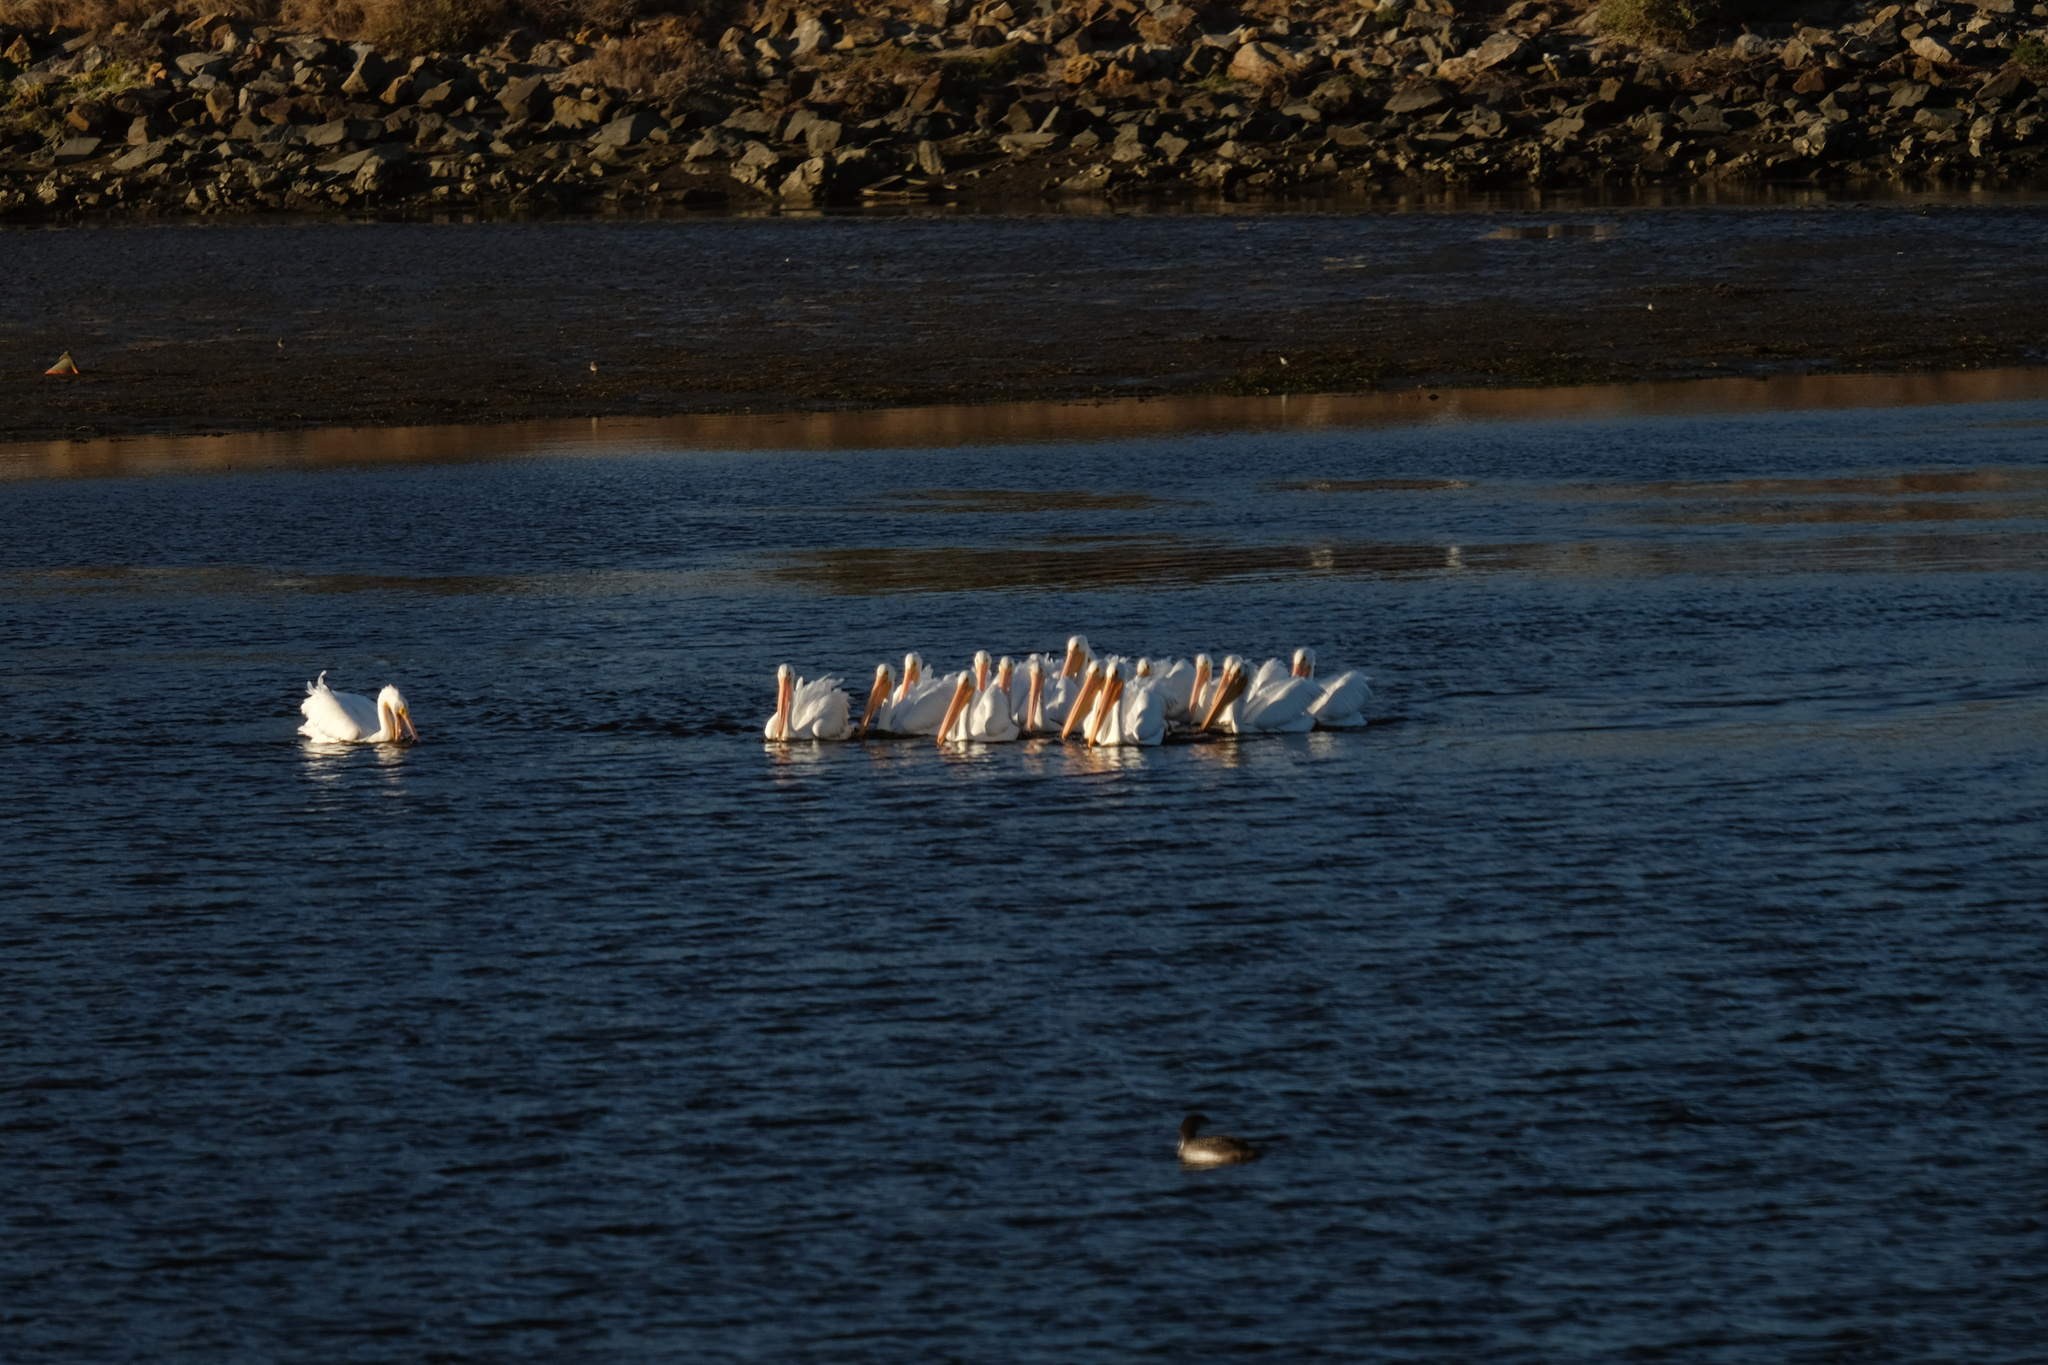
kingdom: Animalia
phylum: Chordata
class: Aves
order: Pelecaniformes
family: Pelecanidae
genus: Pelecanus
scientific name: Pelecanus erythrorhynchos
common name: American white pelican
